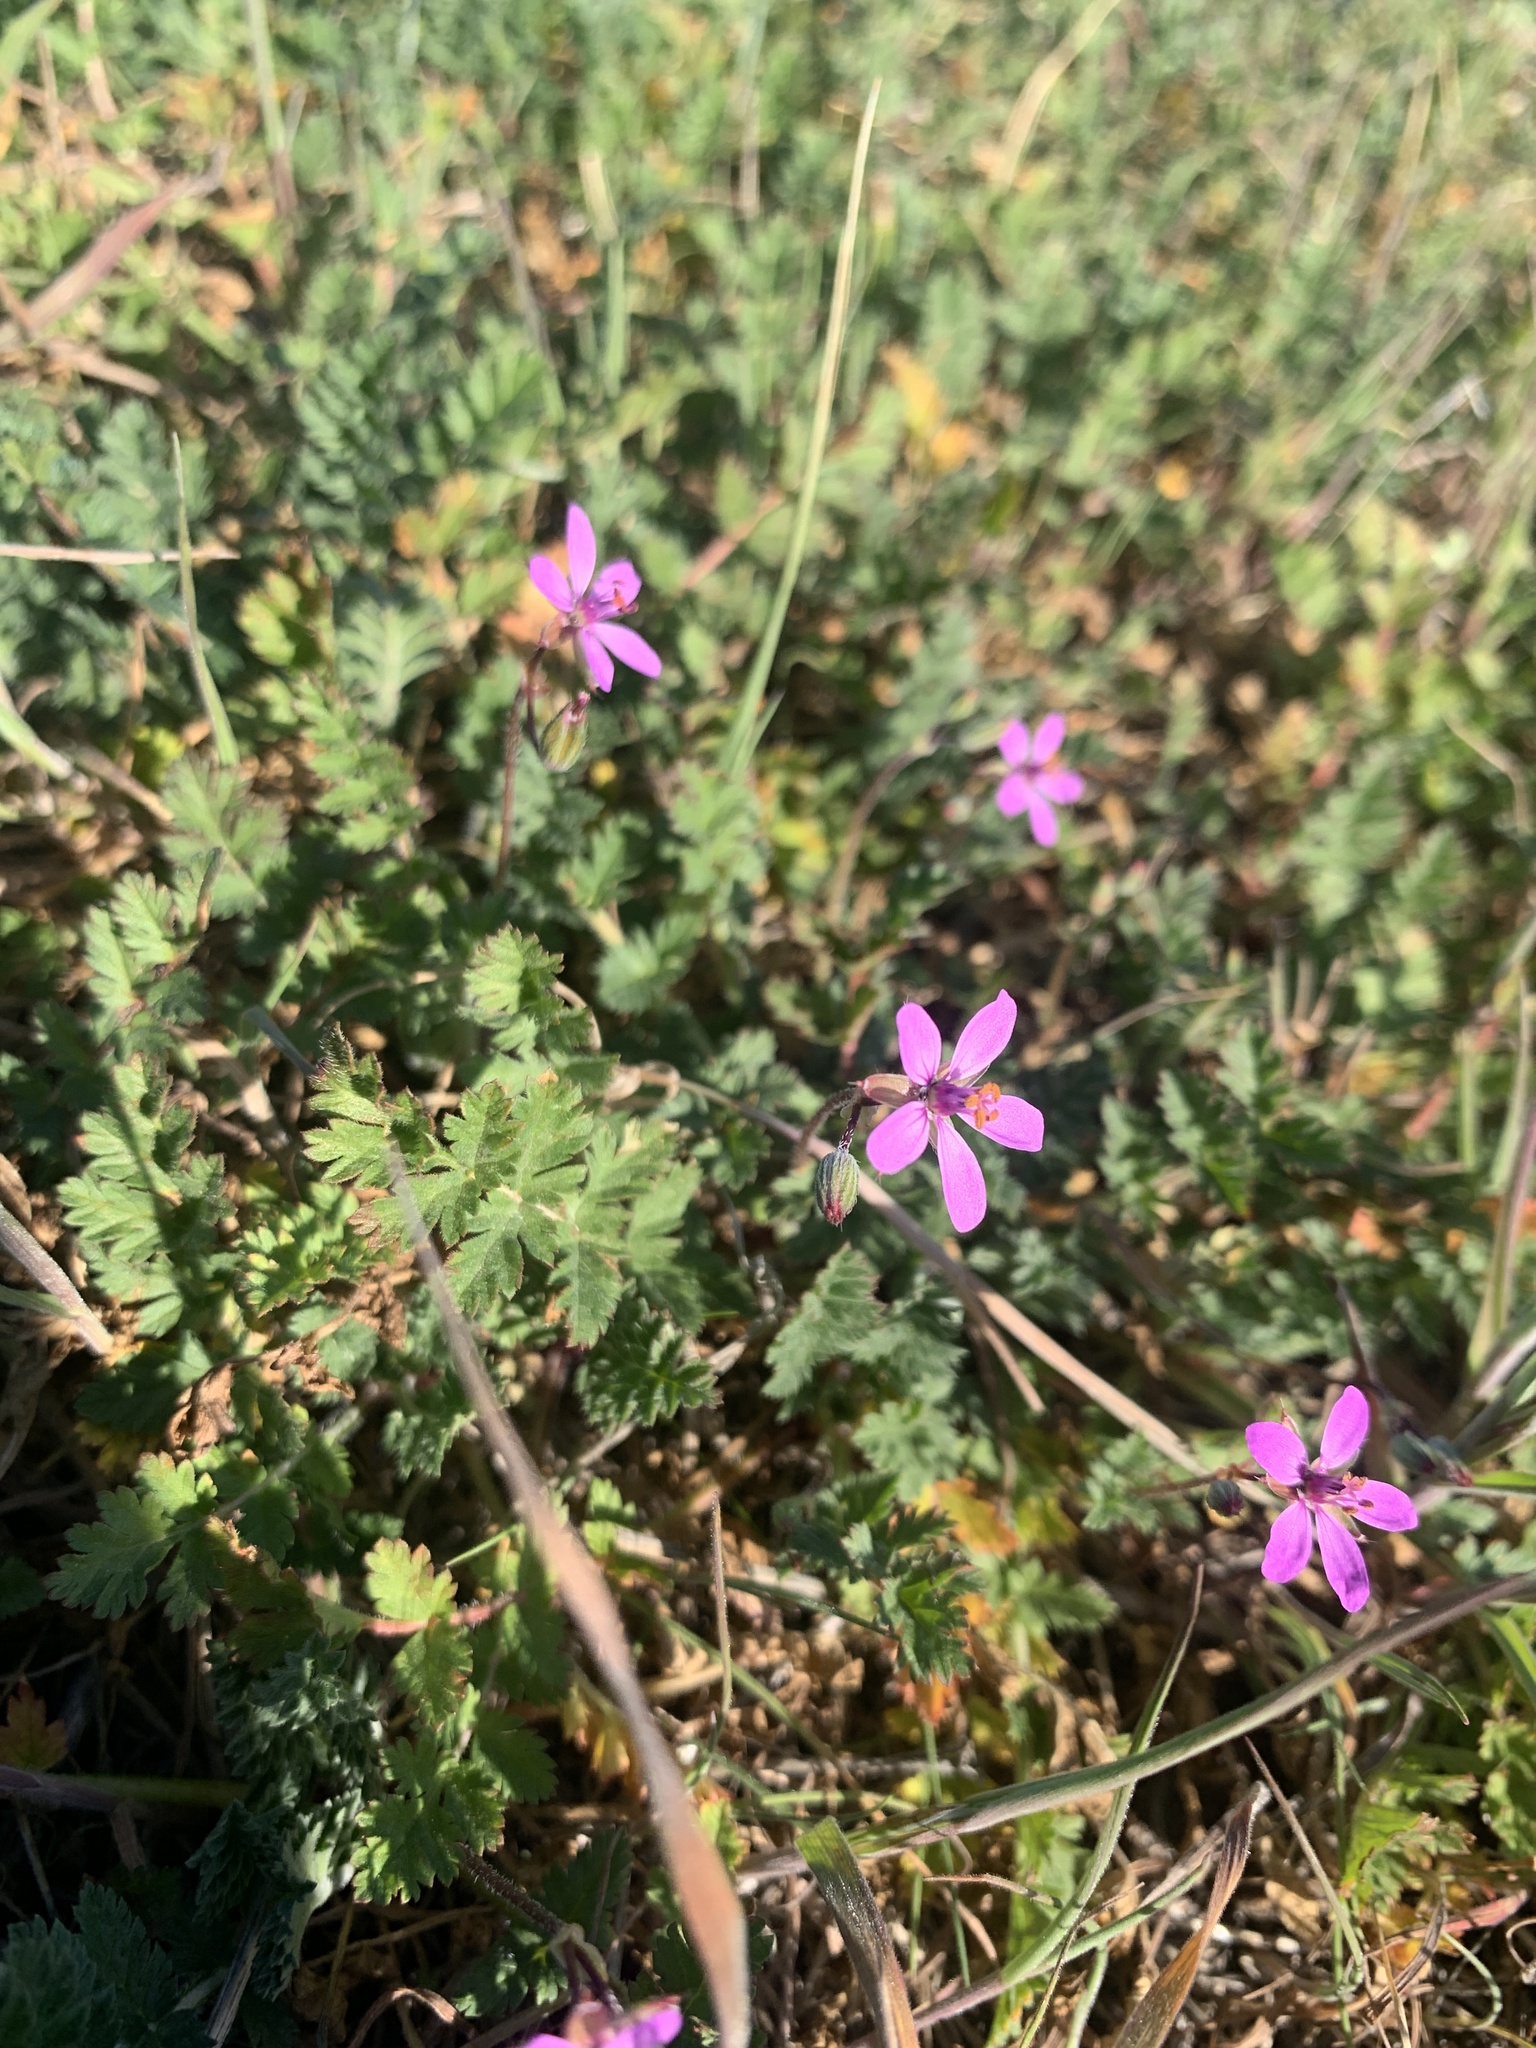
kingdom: Plantae
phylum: Tracheophyta
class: Magnoliopsida
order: Geraniales
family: Geraniaceae
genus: Erodium
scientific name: Erodium cicutarium
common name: Common stork's-bill
